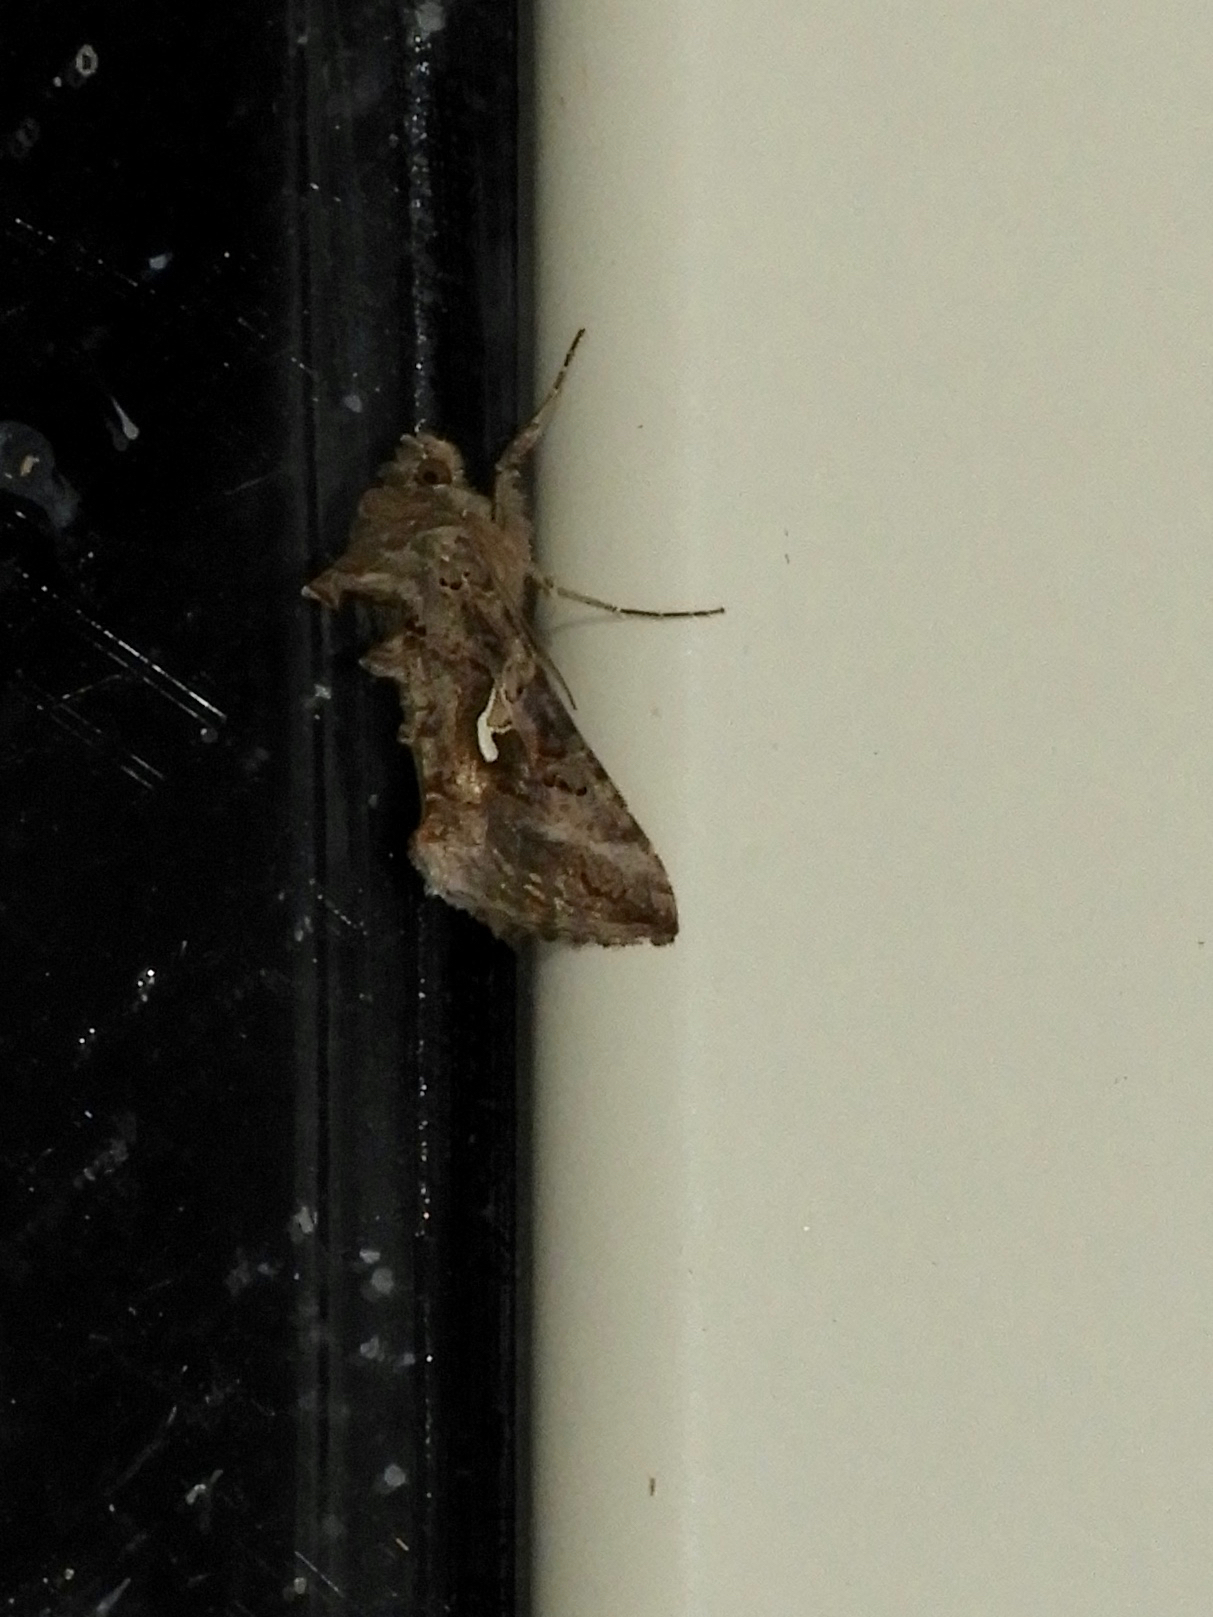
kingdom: Animalia
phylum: Arthropoda
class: Insecta
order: Lepidoptera
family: Noctuidae
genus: Autographa
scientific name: Autographa gamma
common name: Silver y
